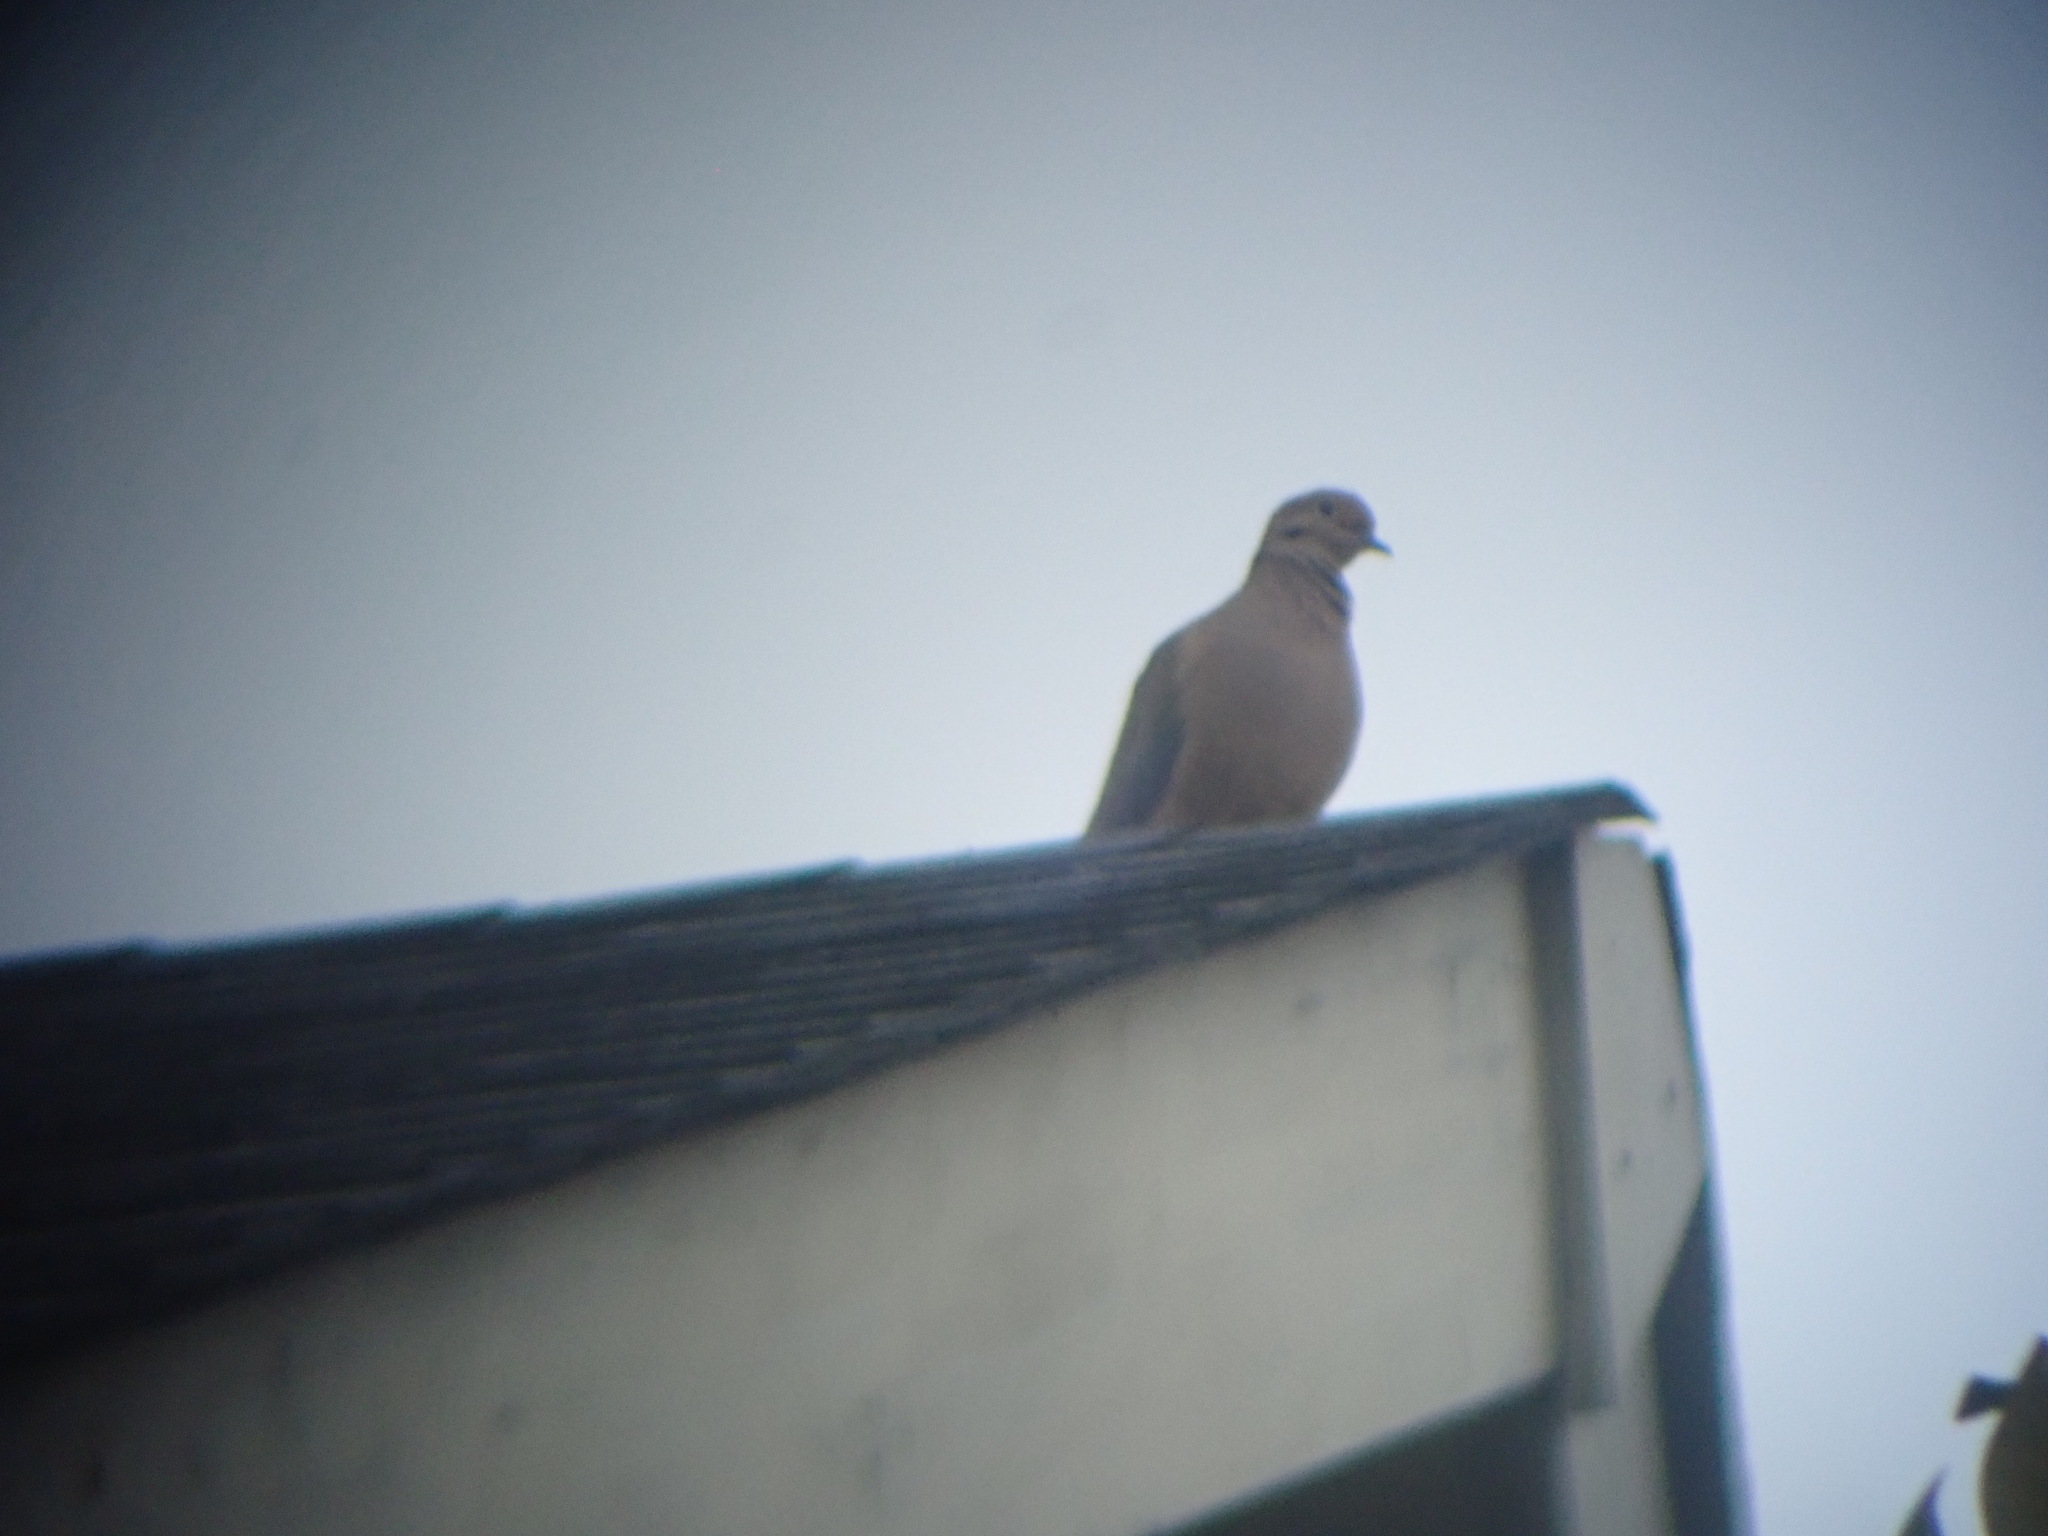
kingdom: Animalia
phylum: Chordata
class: Aves
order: Columbiformes
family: Columbidae
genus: Zenaida
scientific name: Zenaida macroura
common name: Mourning dove
